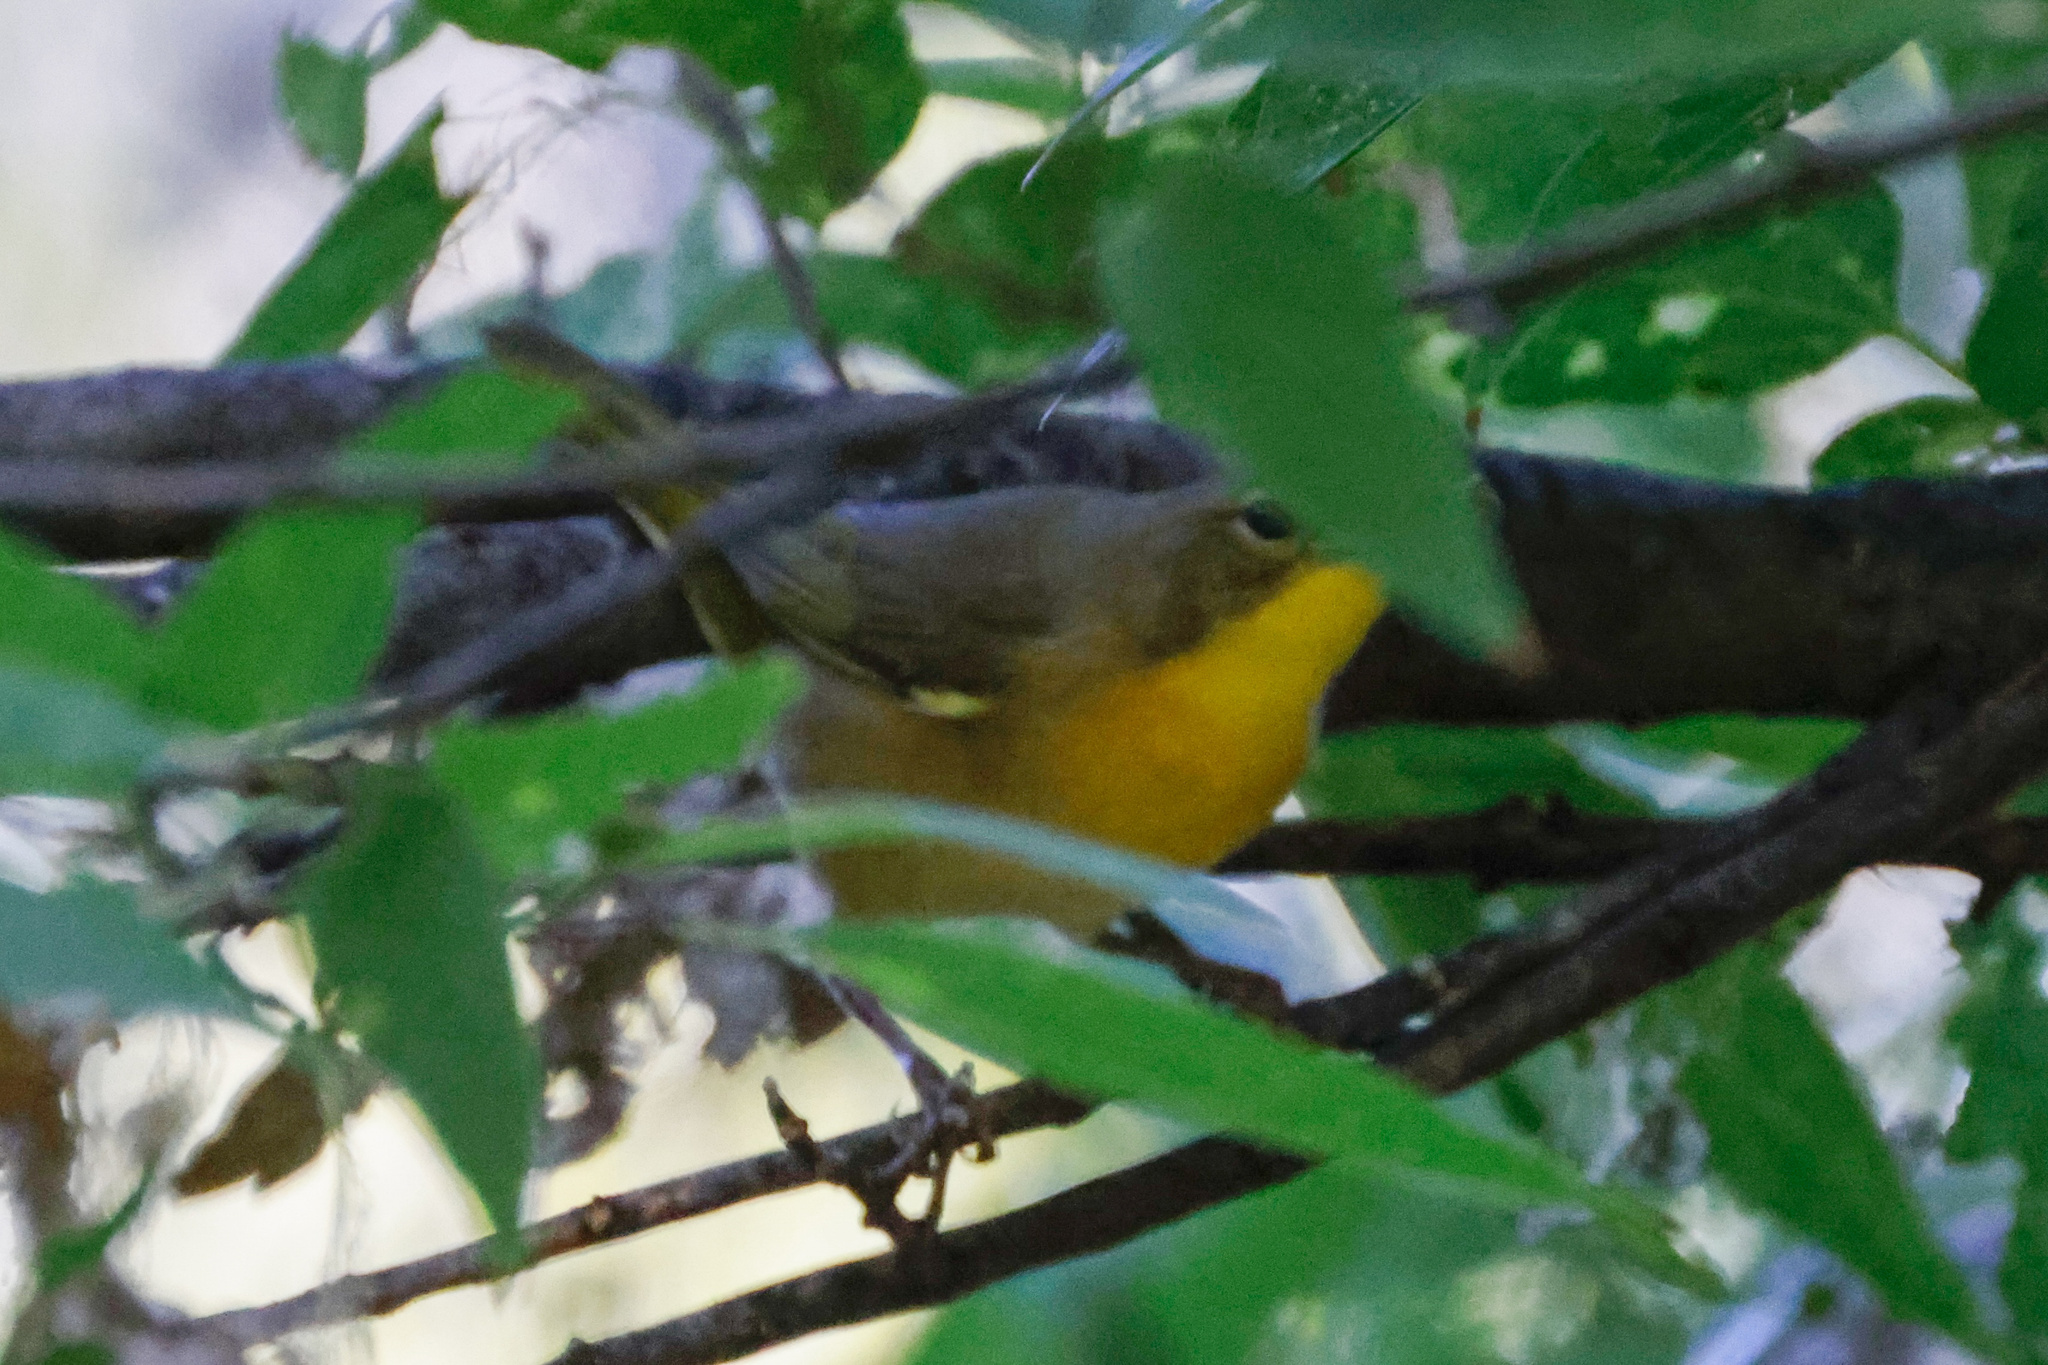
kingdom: Animalia
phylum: Chordata
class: Aves
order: Passeriformes
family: Parulidae
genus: Geothlypis
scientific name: Geothlypis trichas
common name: Common yellowthroat
